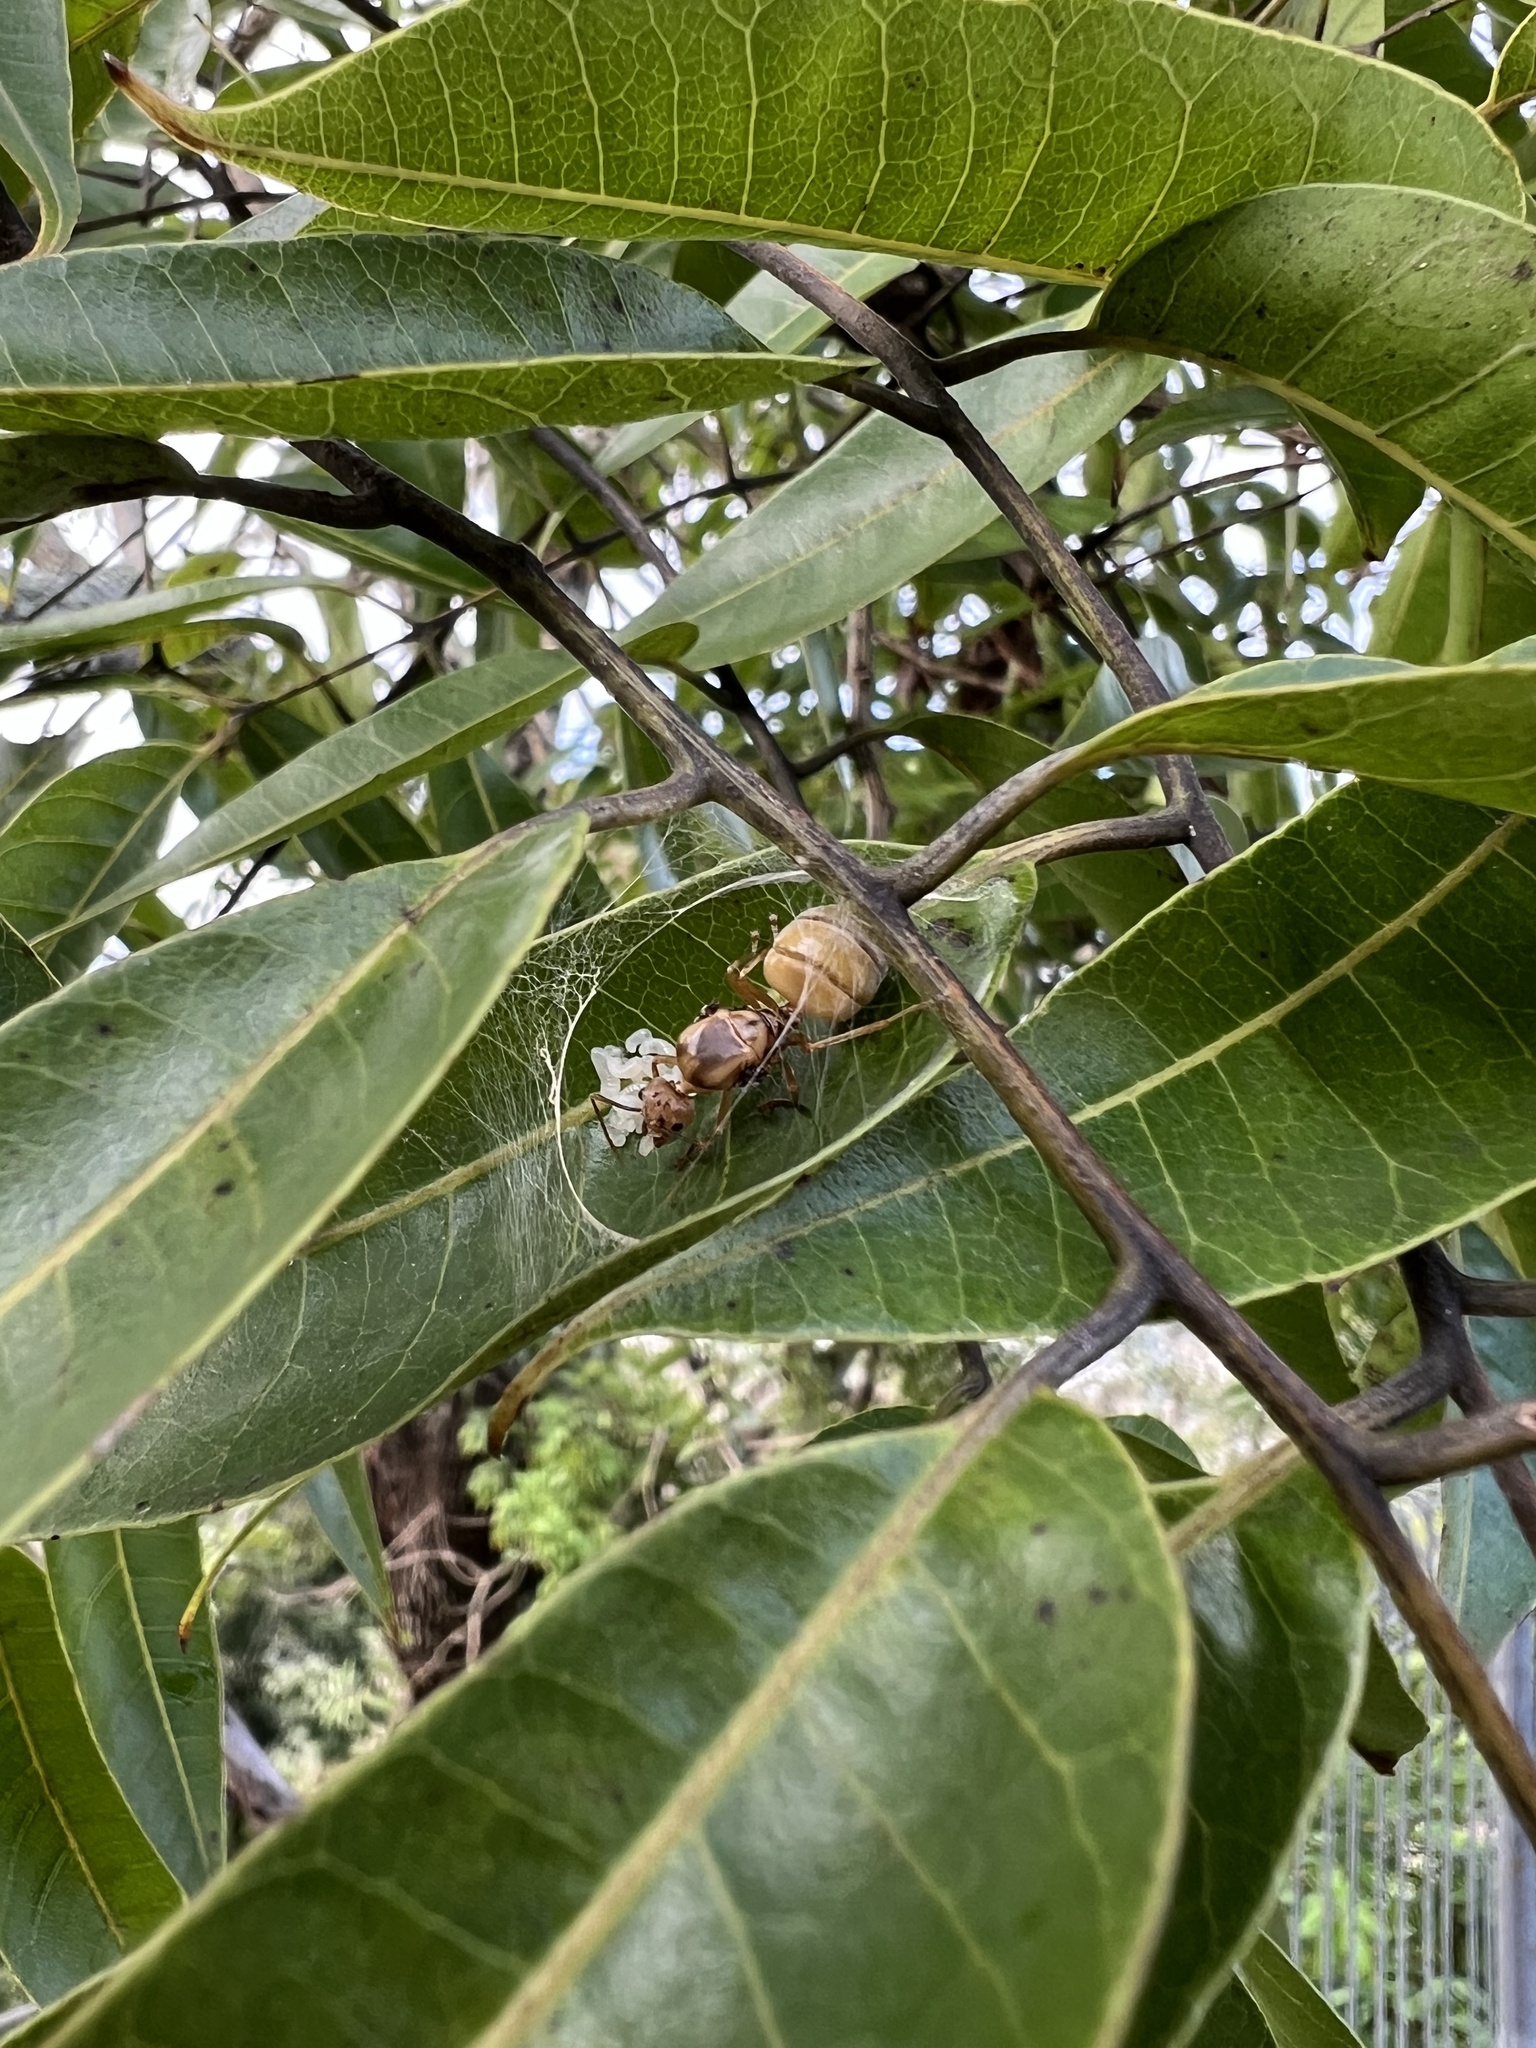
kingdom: Animalia
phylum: Arthropoda
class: Insecta
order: Hymenoptera
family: Formicidae
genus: Oecophylla
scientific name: Oecophylla smaragdina
